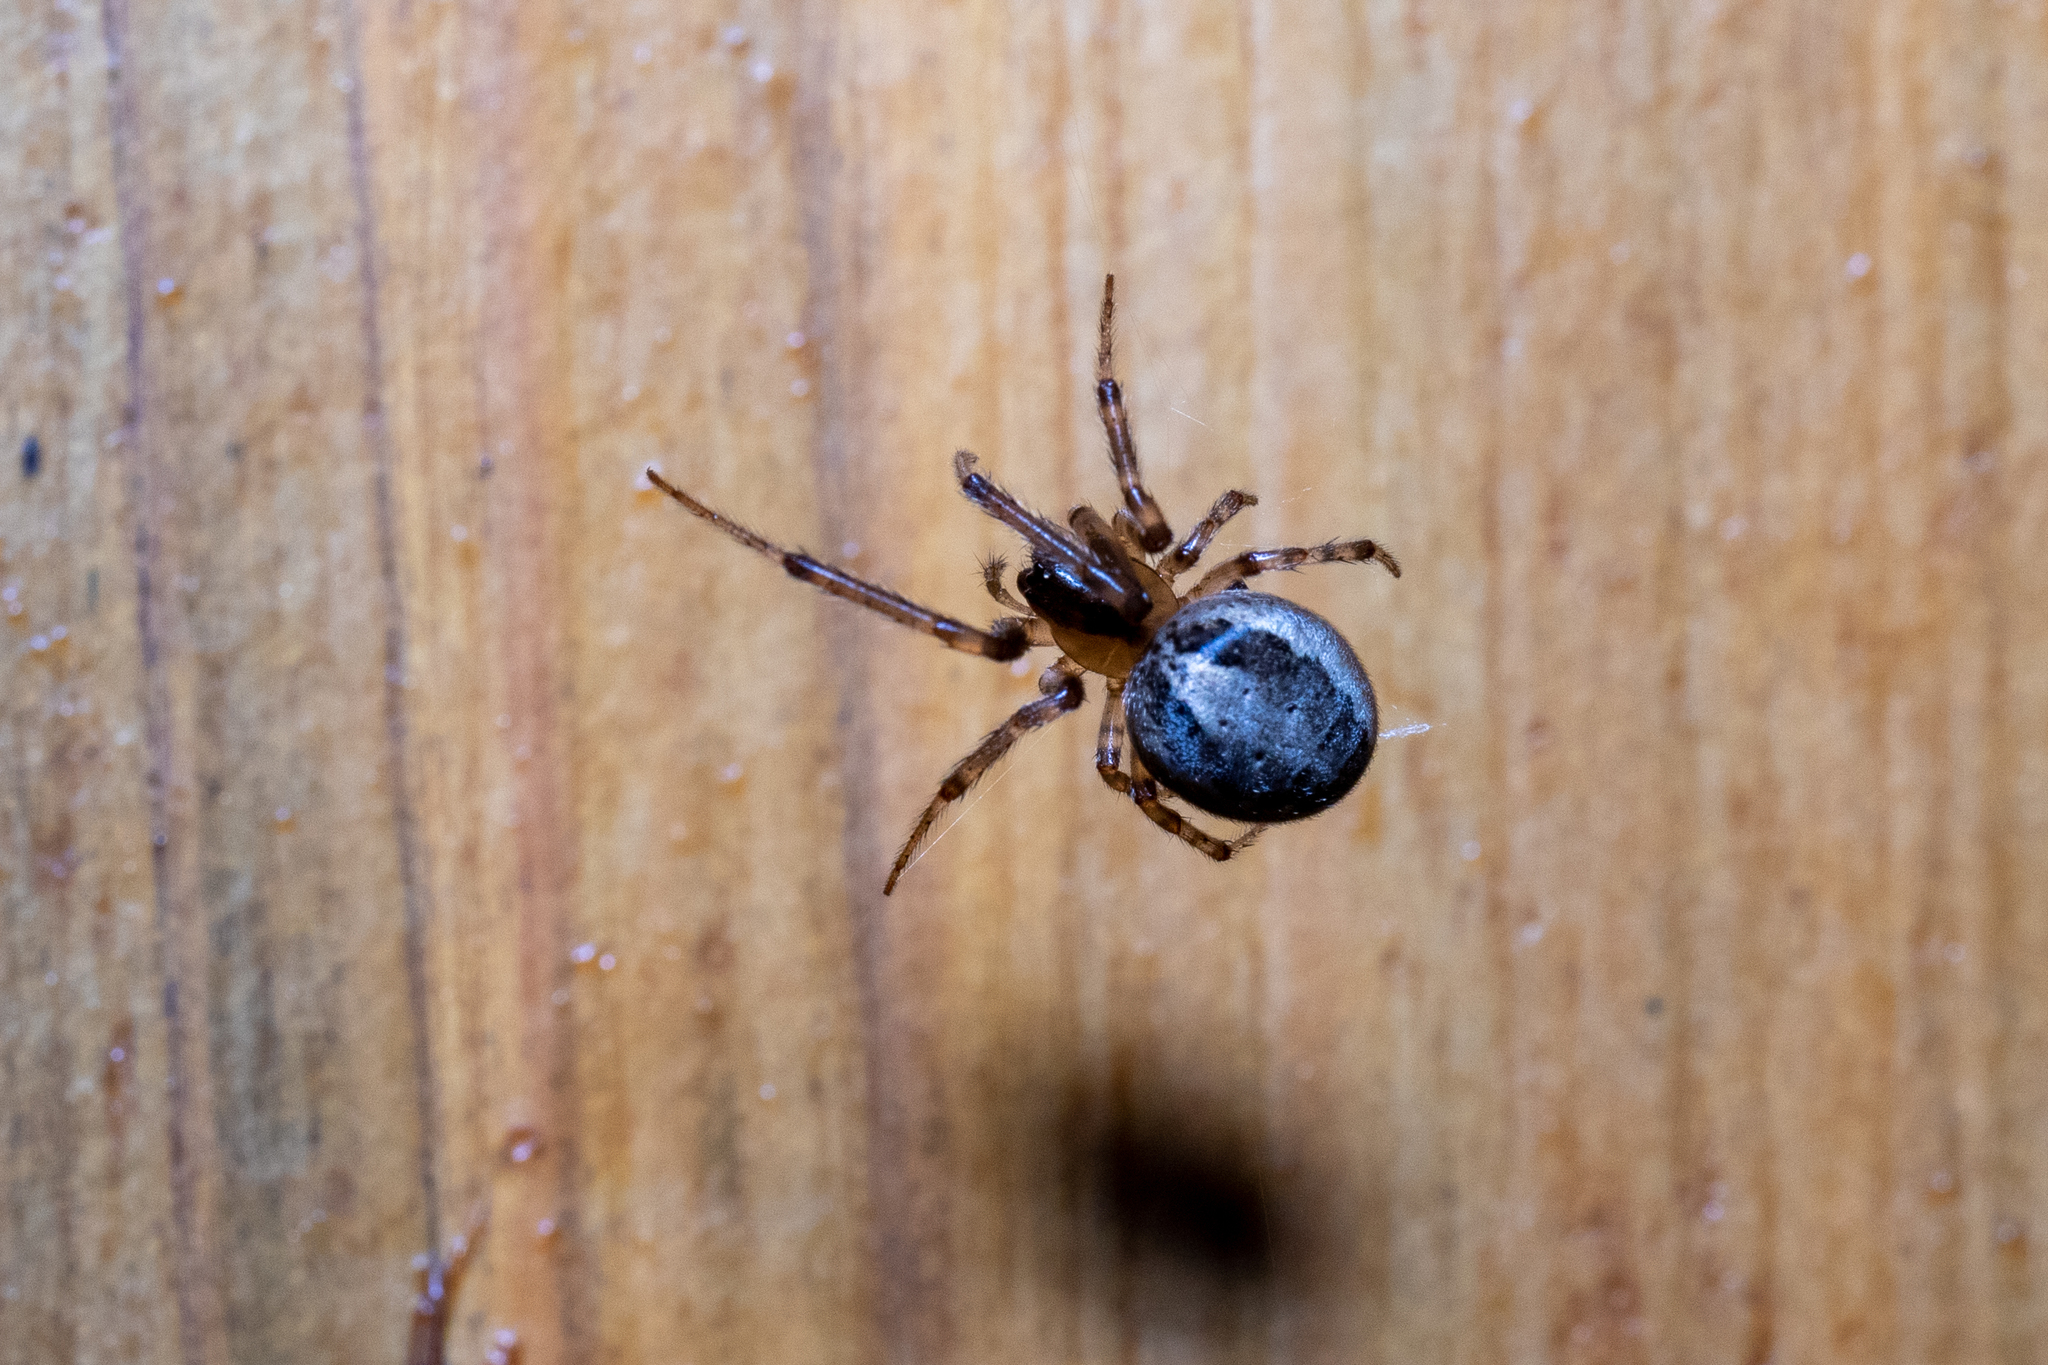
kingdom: Animalia
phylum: Arthropoda
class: Arachnida
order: Araneae
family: Araneidae
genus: Zygiella
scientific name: Zygiella x-notata
